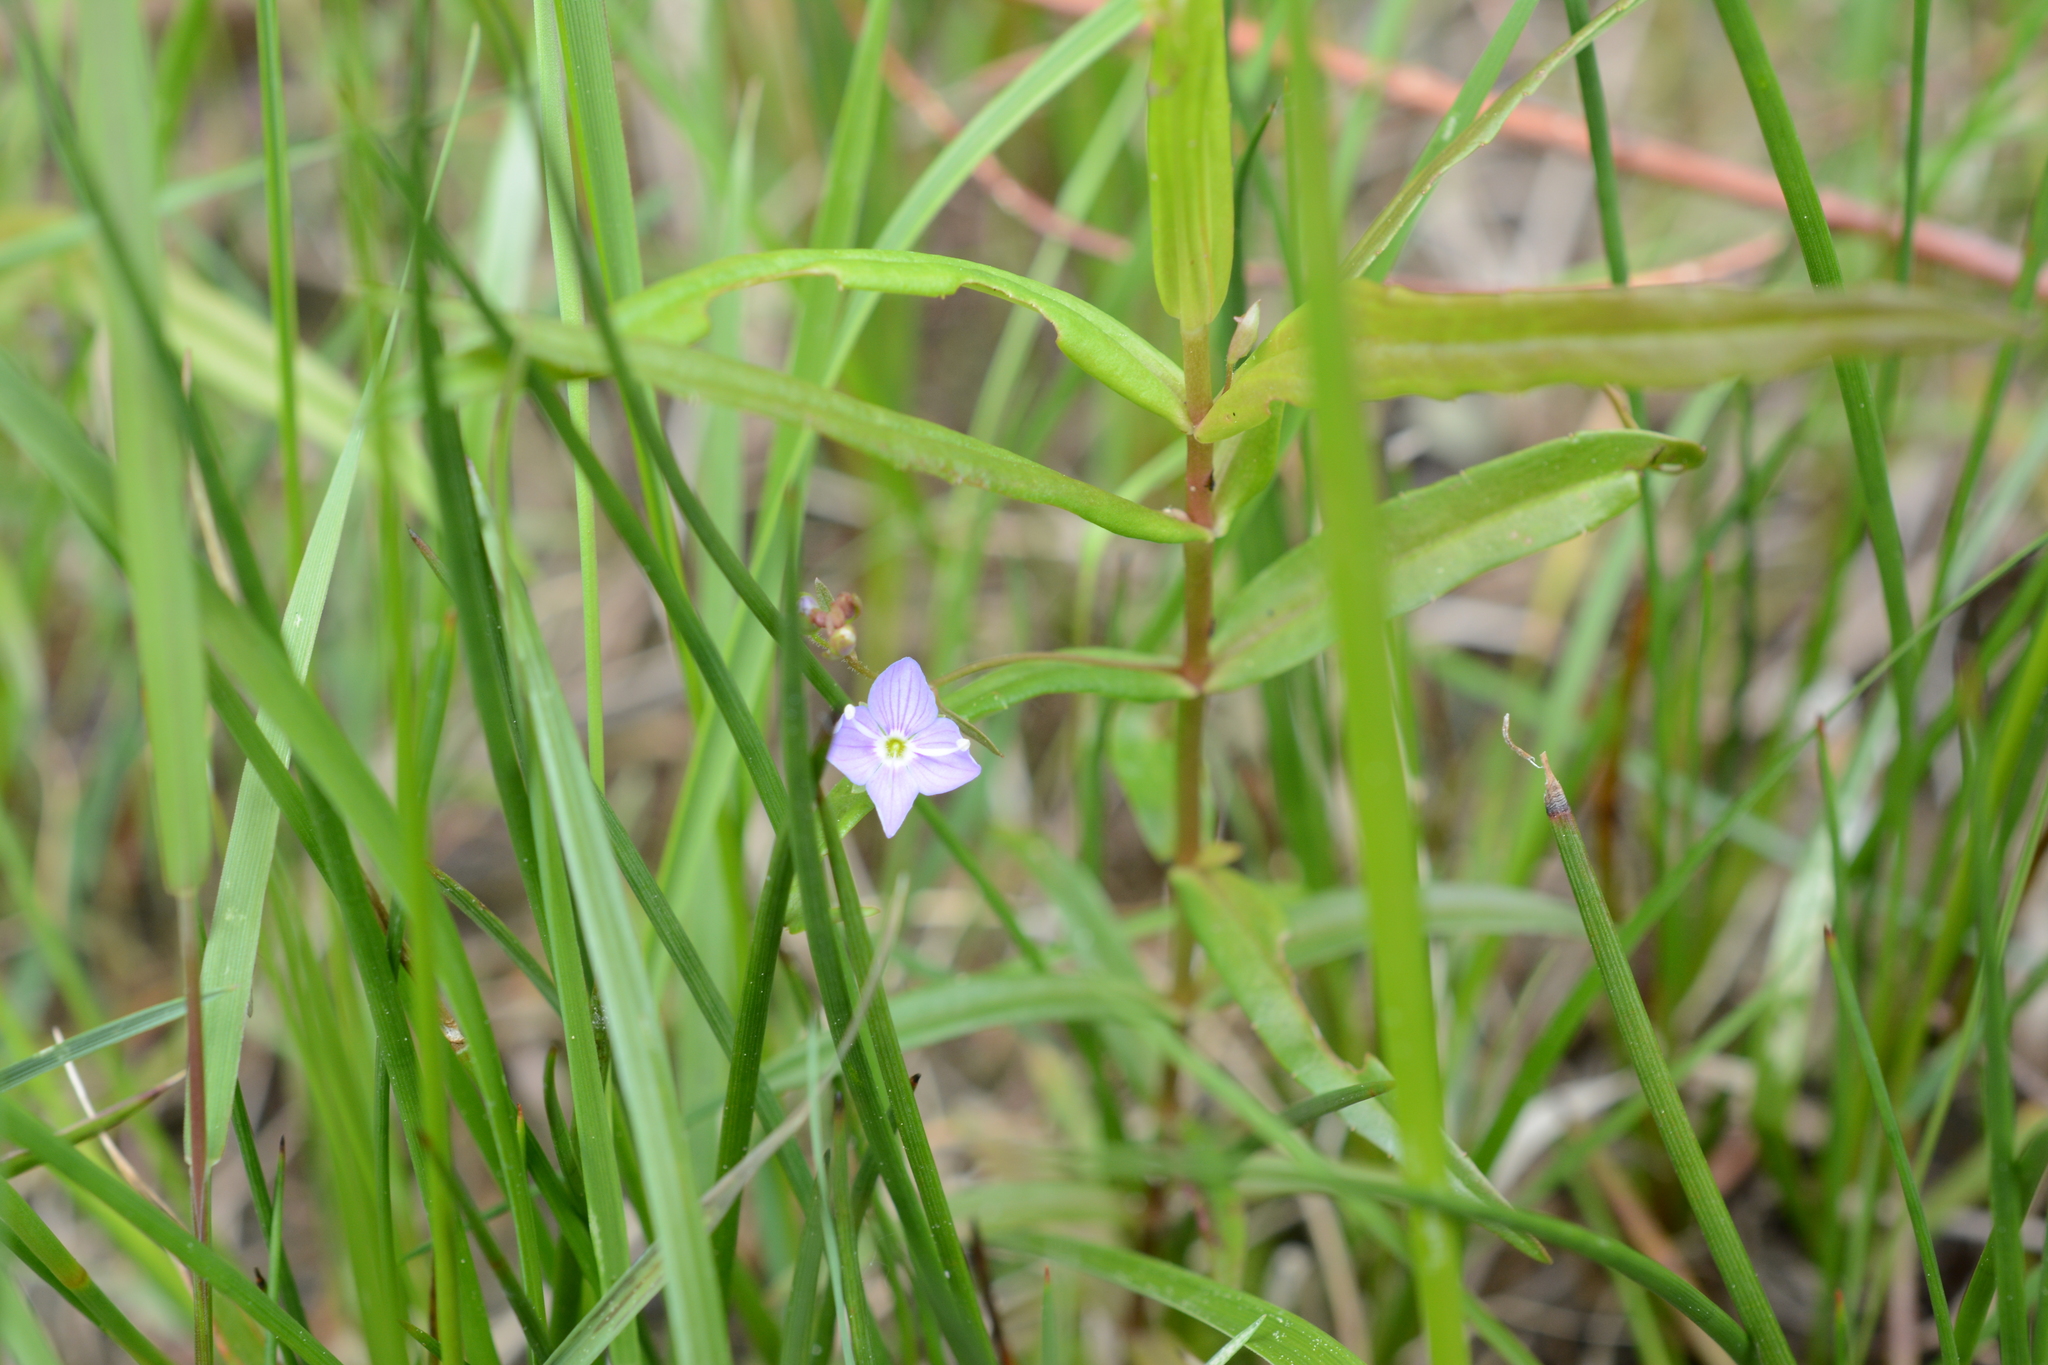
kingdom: Plantae
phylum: Tracheophyta
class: Magnoliopsida
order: Lamiales
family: Plantaginaceae
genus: Veronica
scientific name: Veronica scutellata
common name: Marsh speedwell
